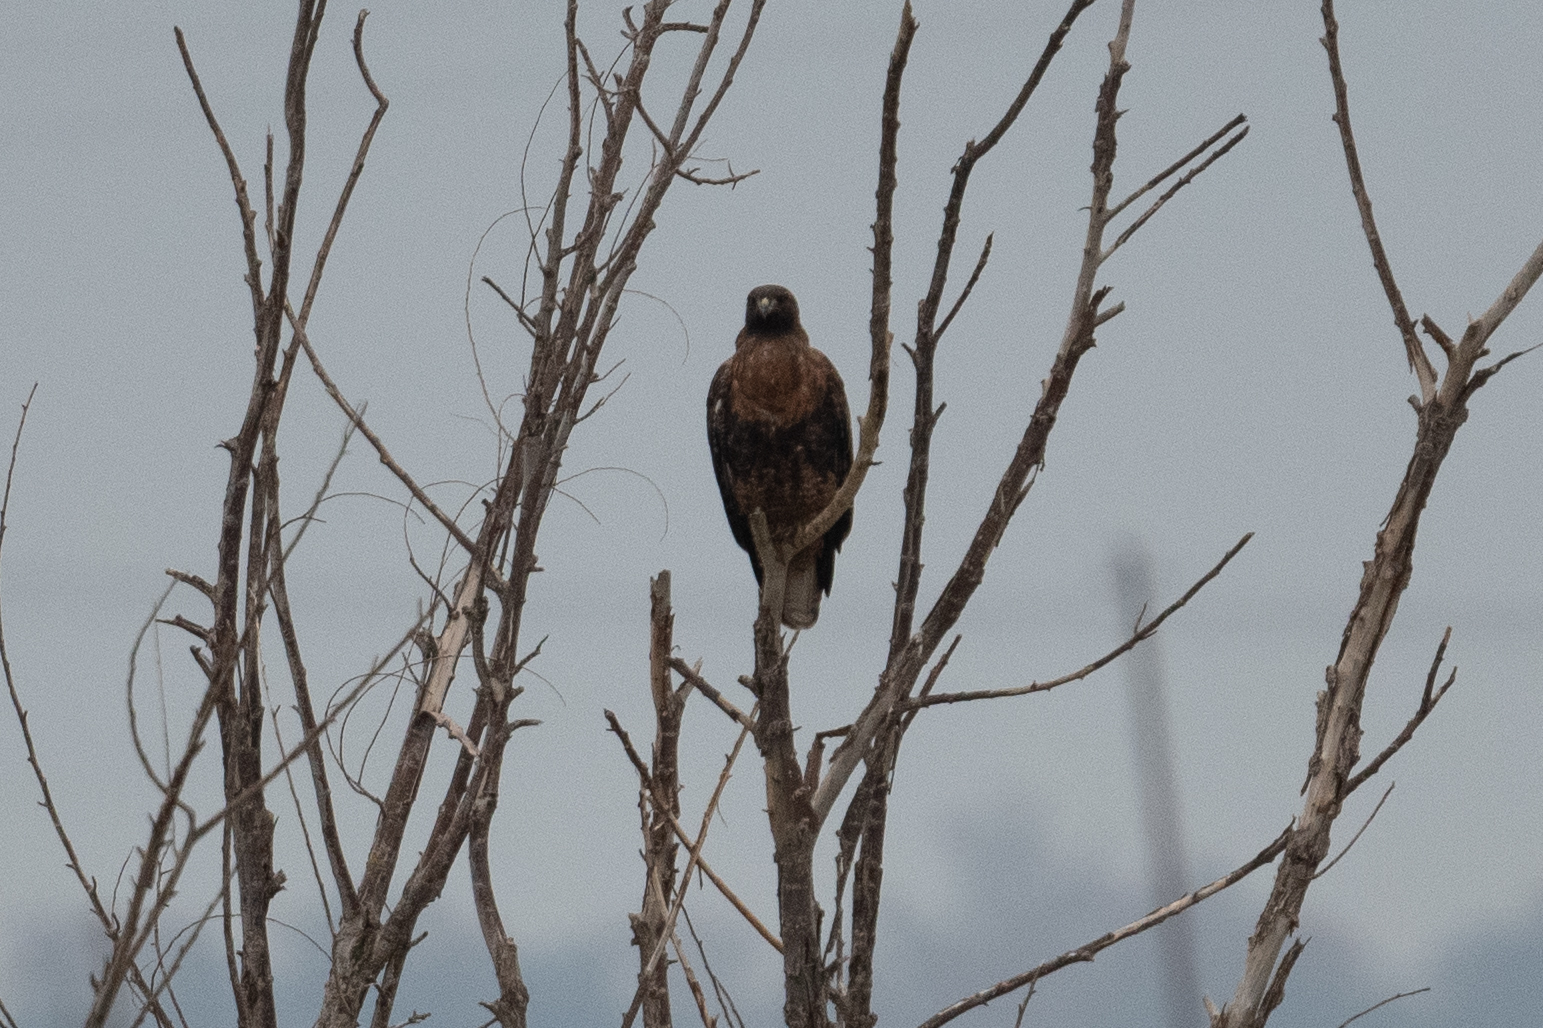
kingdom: Animalia
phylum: Chordata
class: Aves
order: Accipitriformes
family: Accipitridae
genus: Buteo
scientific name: Buteo jamaicensis
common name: Red-tailed hawk
